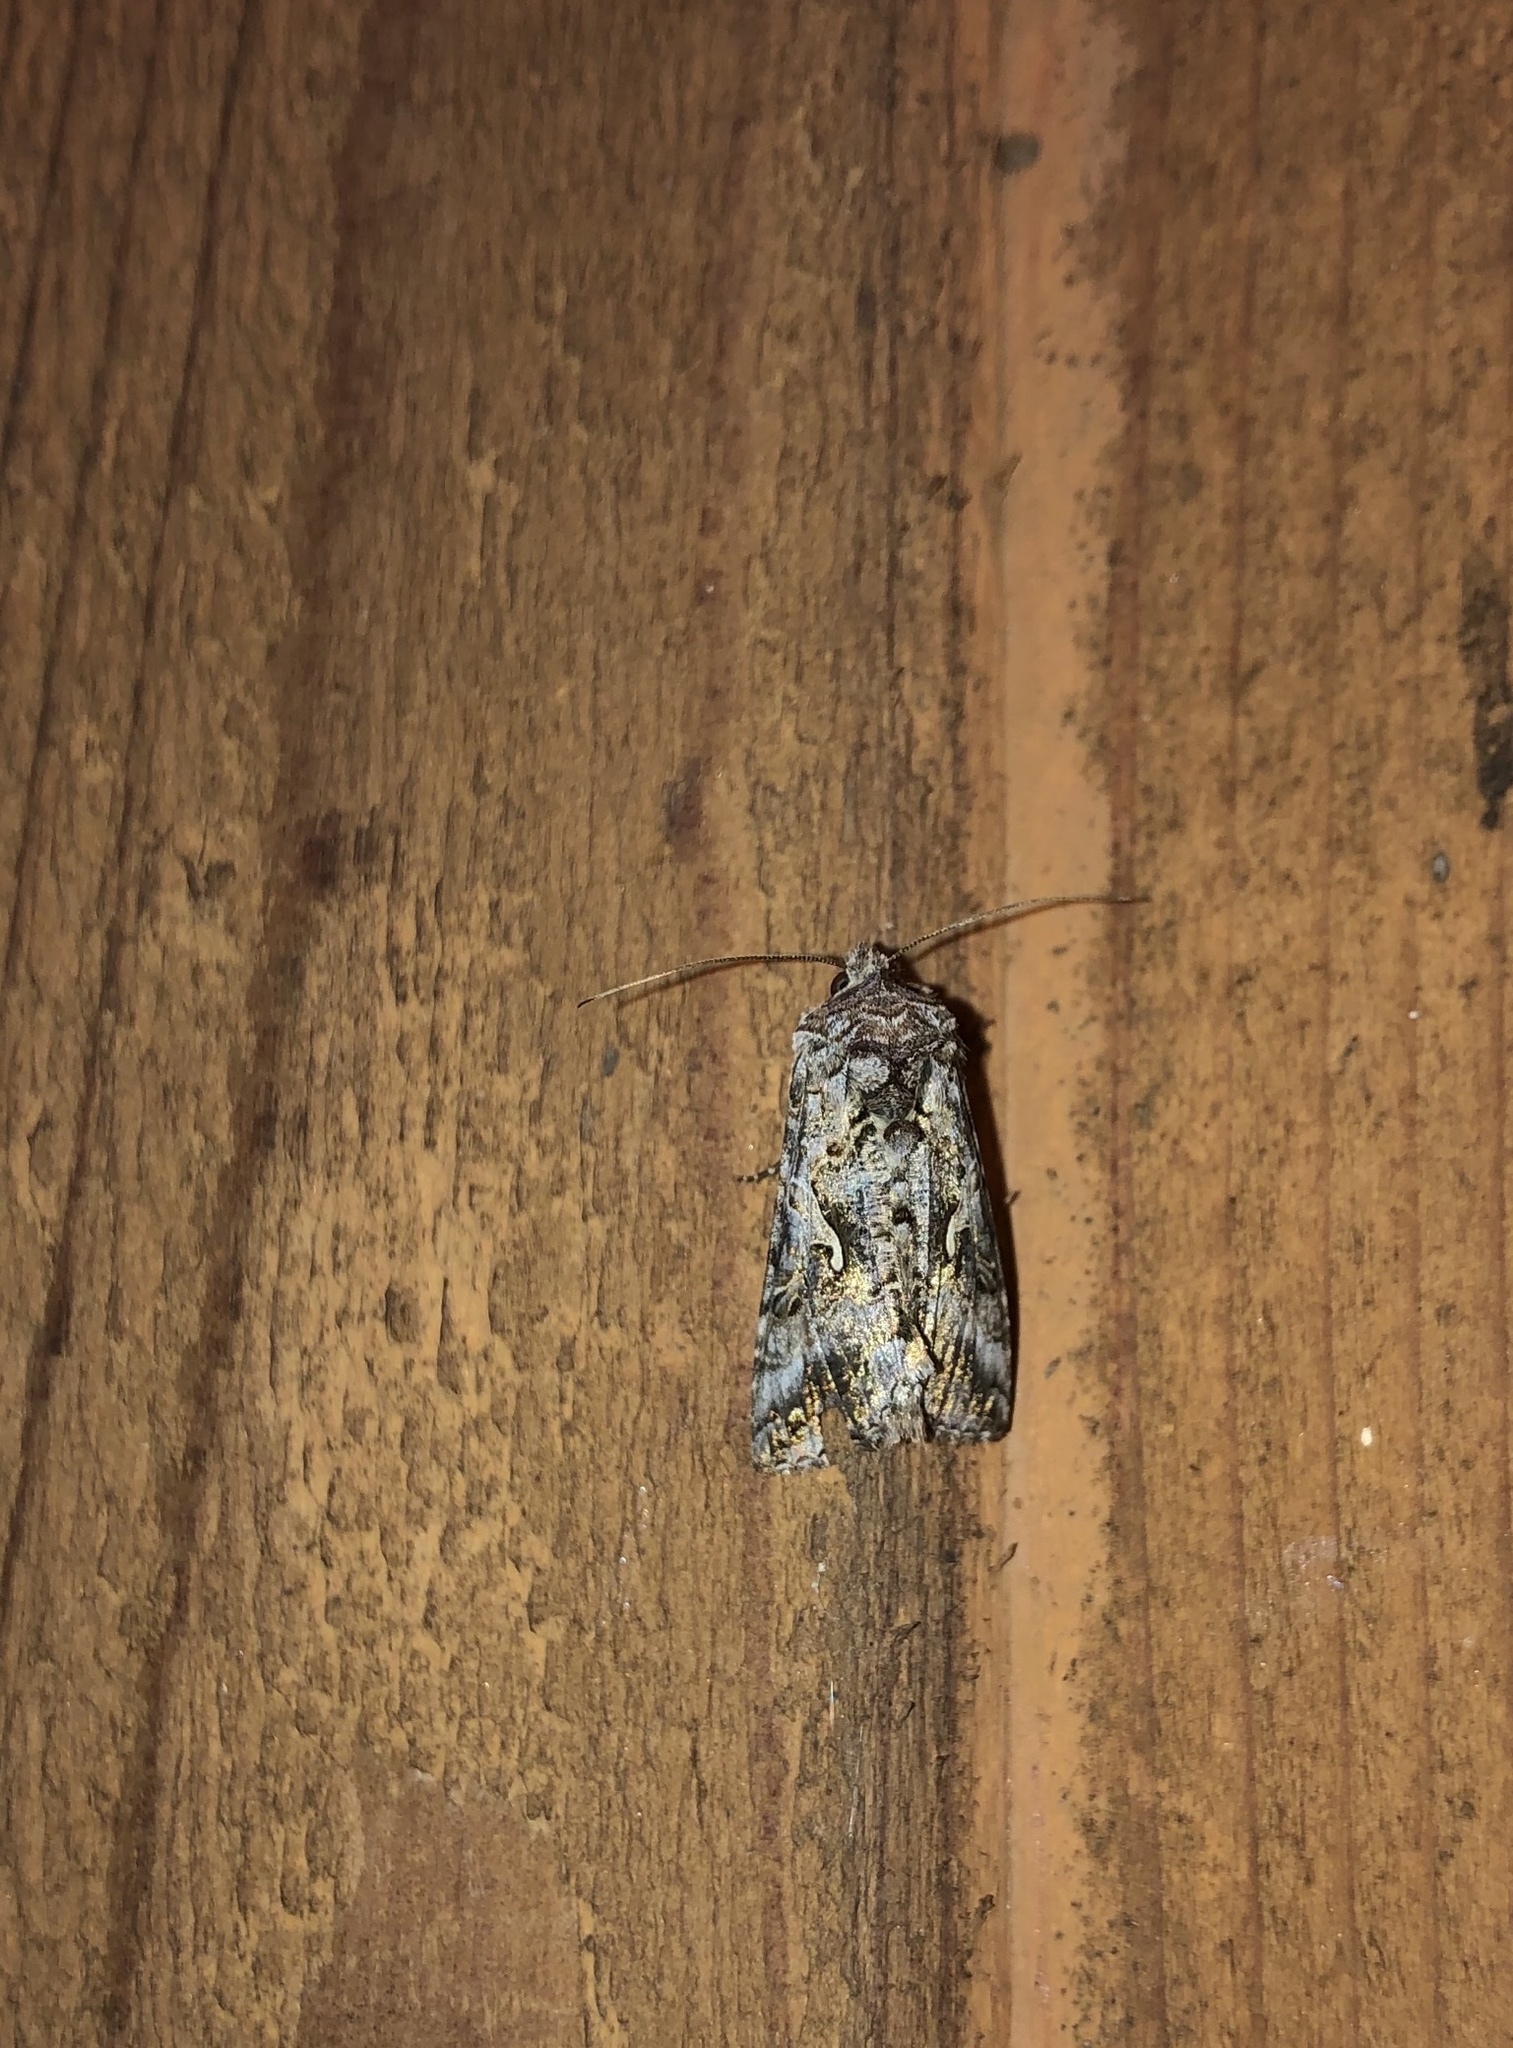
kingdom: Animalia
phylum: Arthropoda
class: Insecta
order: Lepidoptera
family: Noctuidae
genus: Autographa
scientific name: Autographa californica
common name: Alfalfa looper
